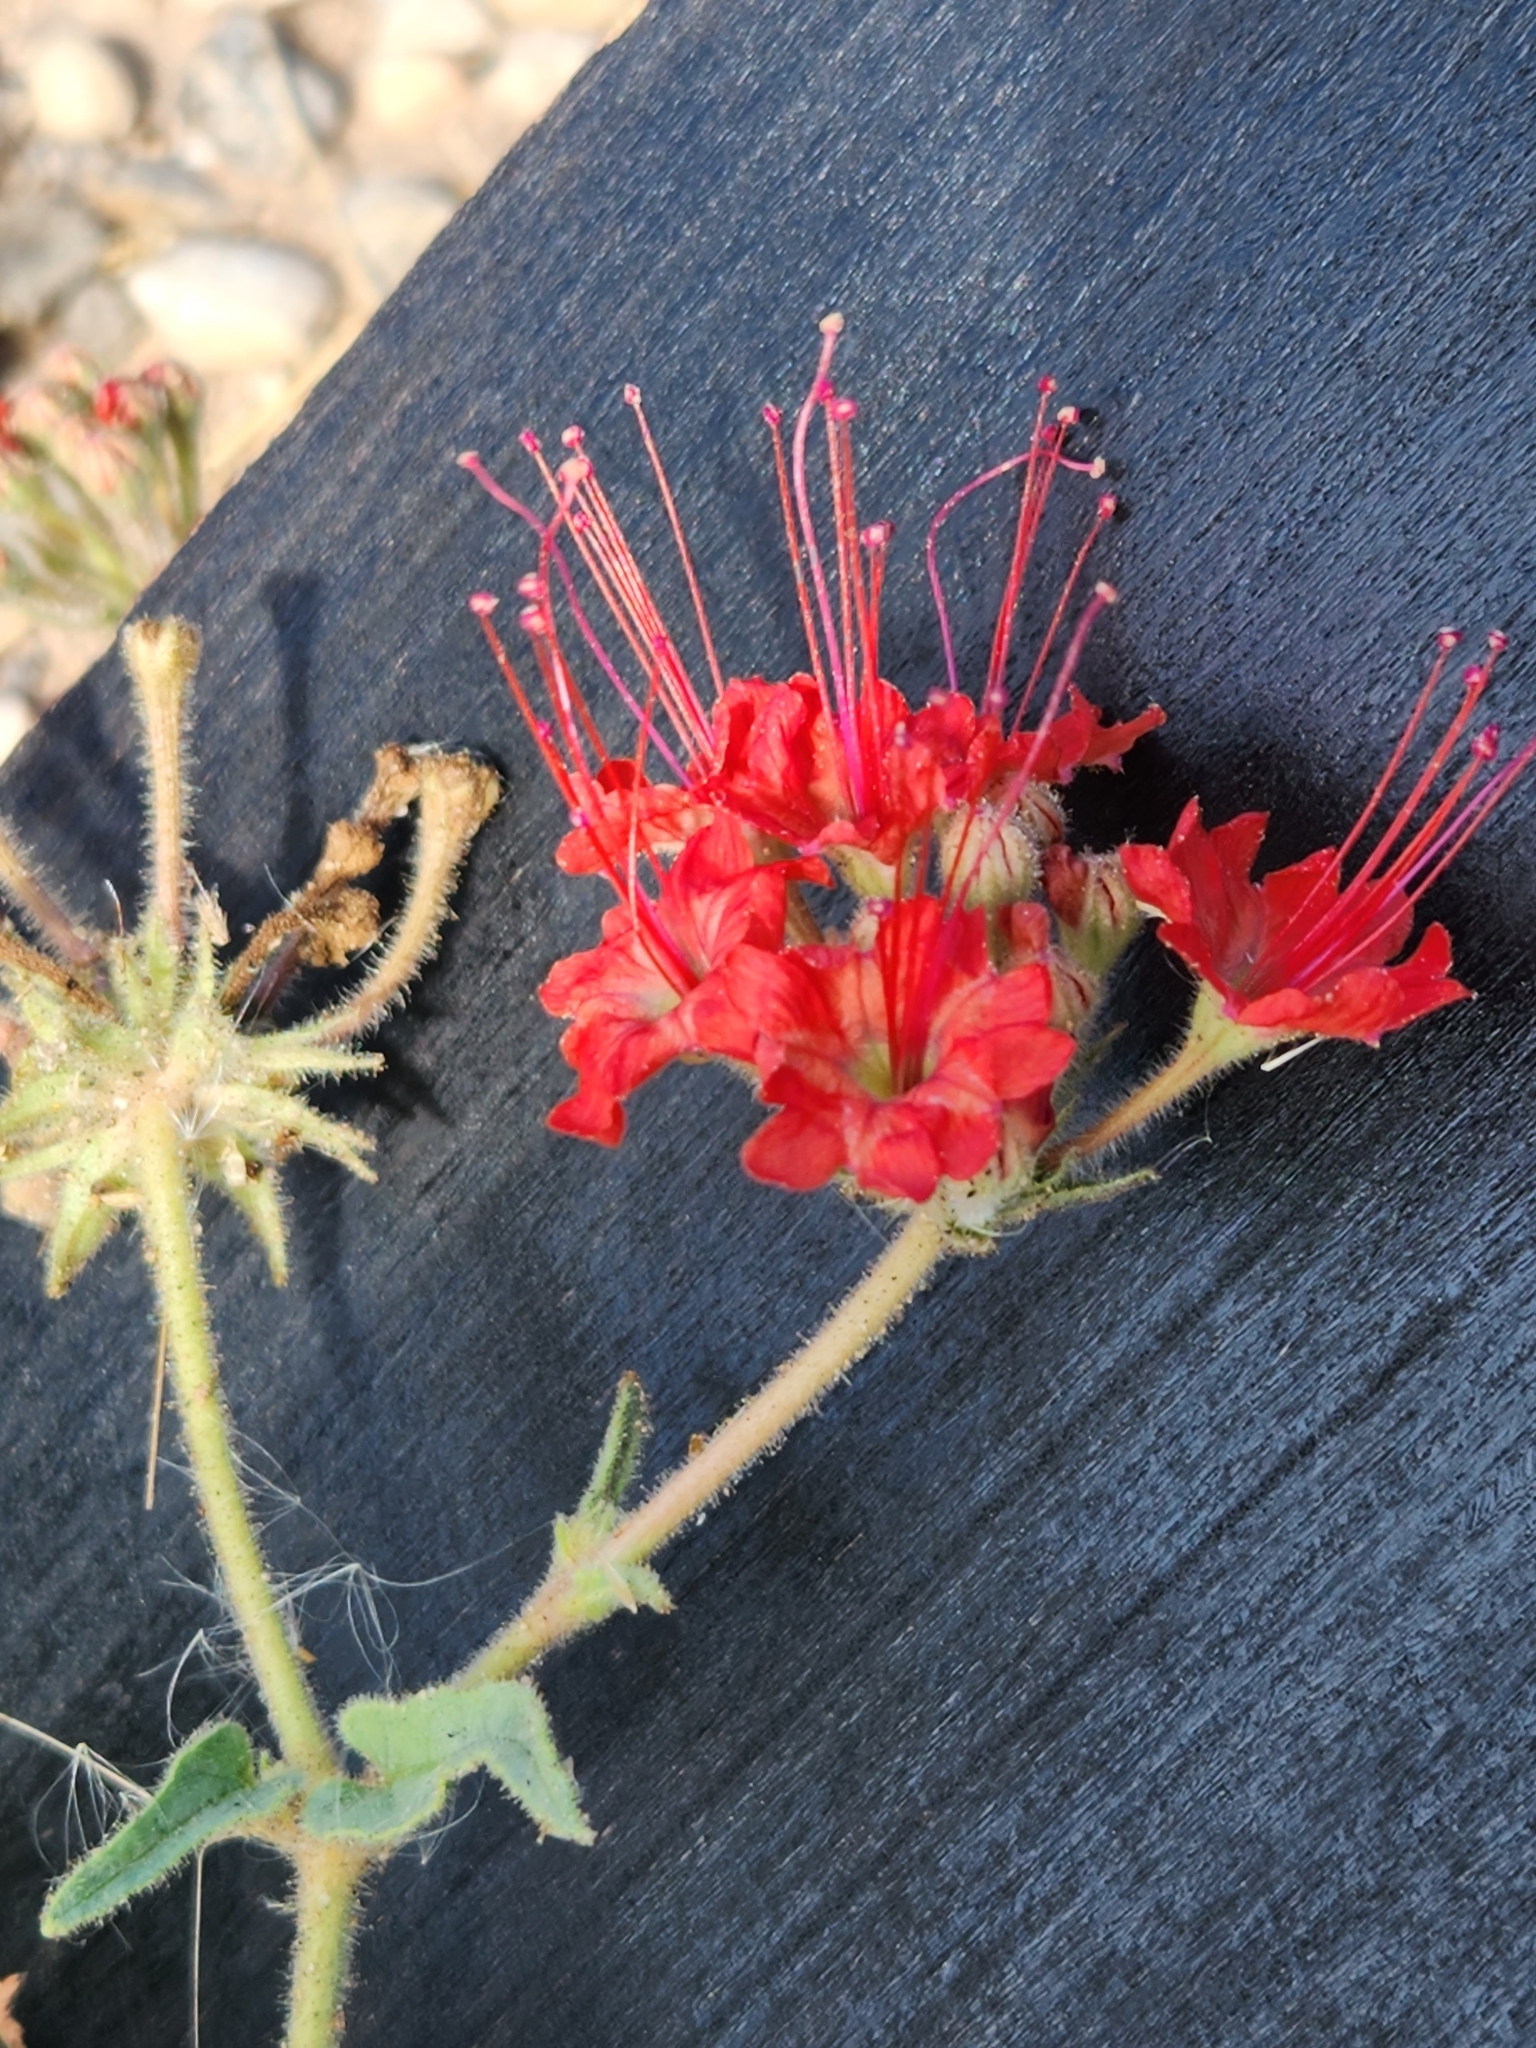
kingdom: Plantae
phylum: Tracheophyta
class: Magnoliopsida
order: Caryophyllales
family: Nyctaginaceae
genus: Nyctaginia
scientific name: Nyctaginia capitata
